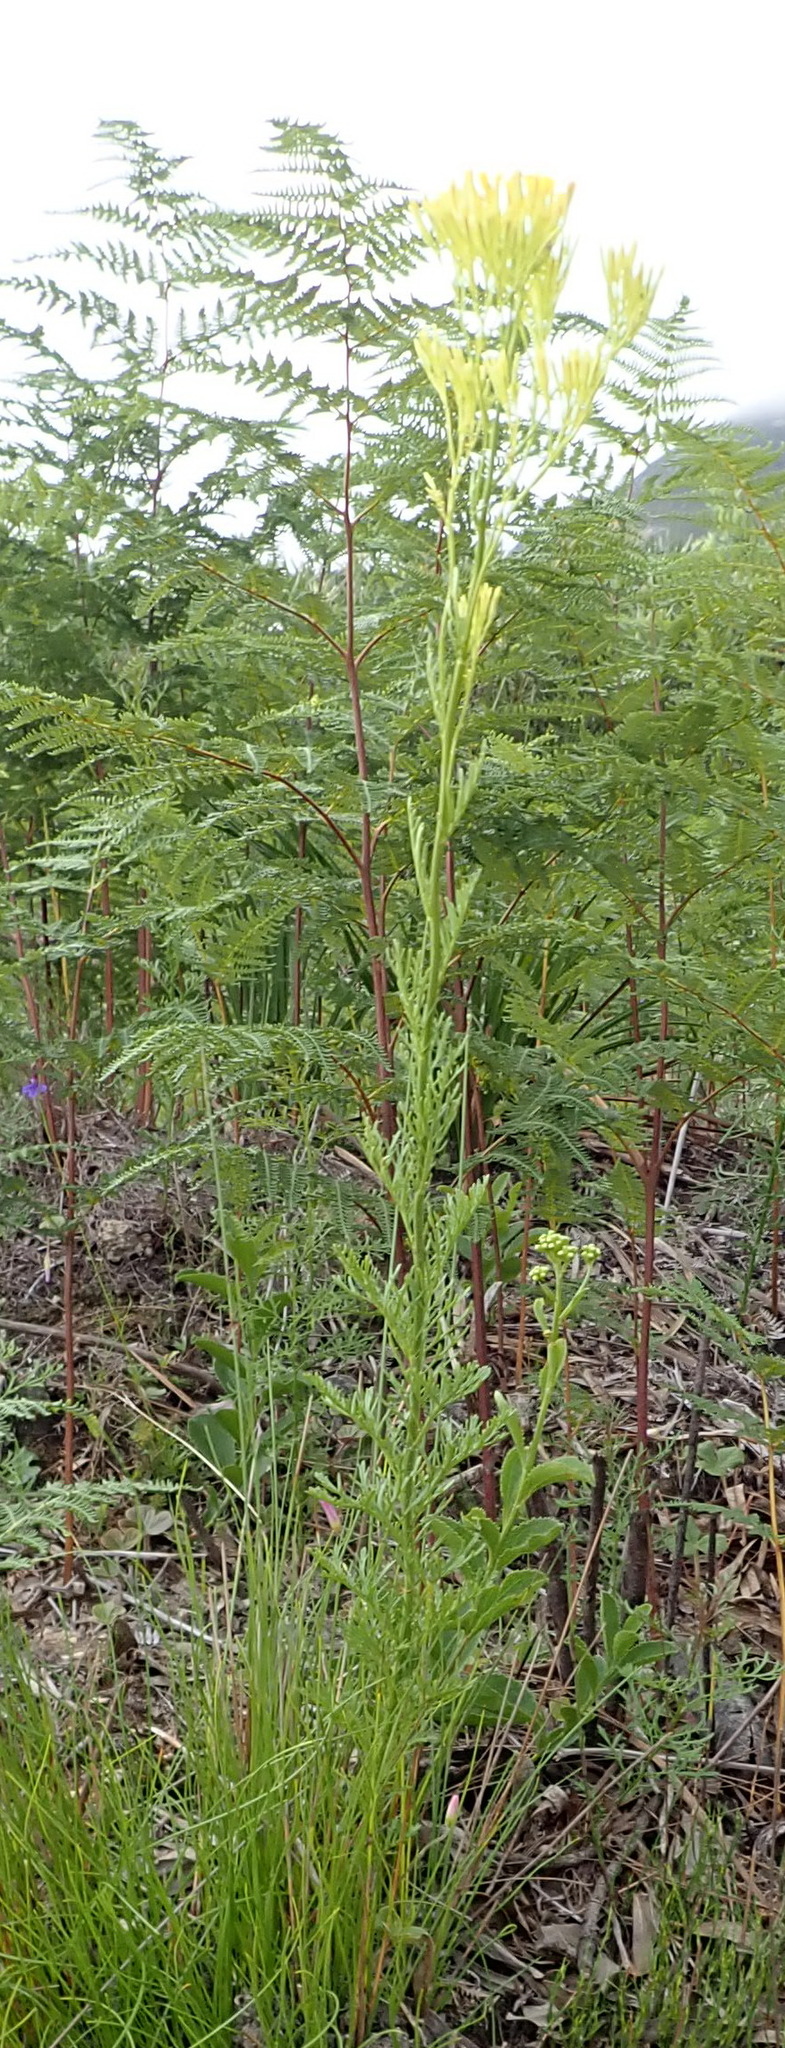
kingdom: Plantae
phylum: Tracheophyta
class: Magnoliopsida
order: Asterales
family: Asteraceae
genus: Senecio
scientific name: Senecio bipinnatus
